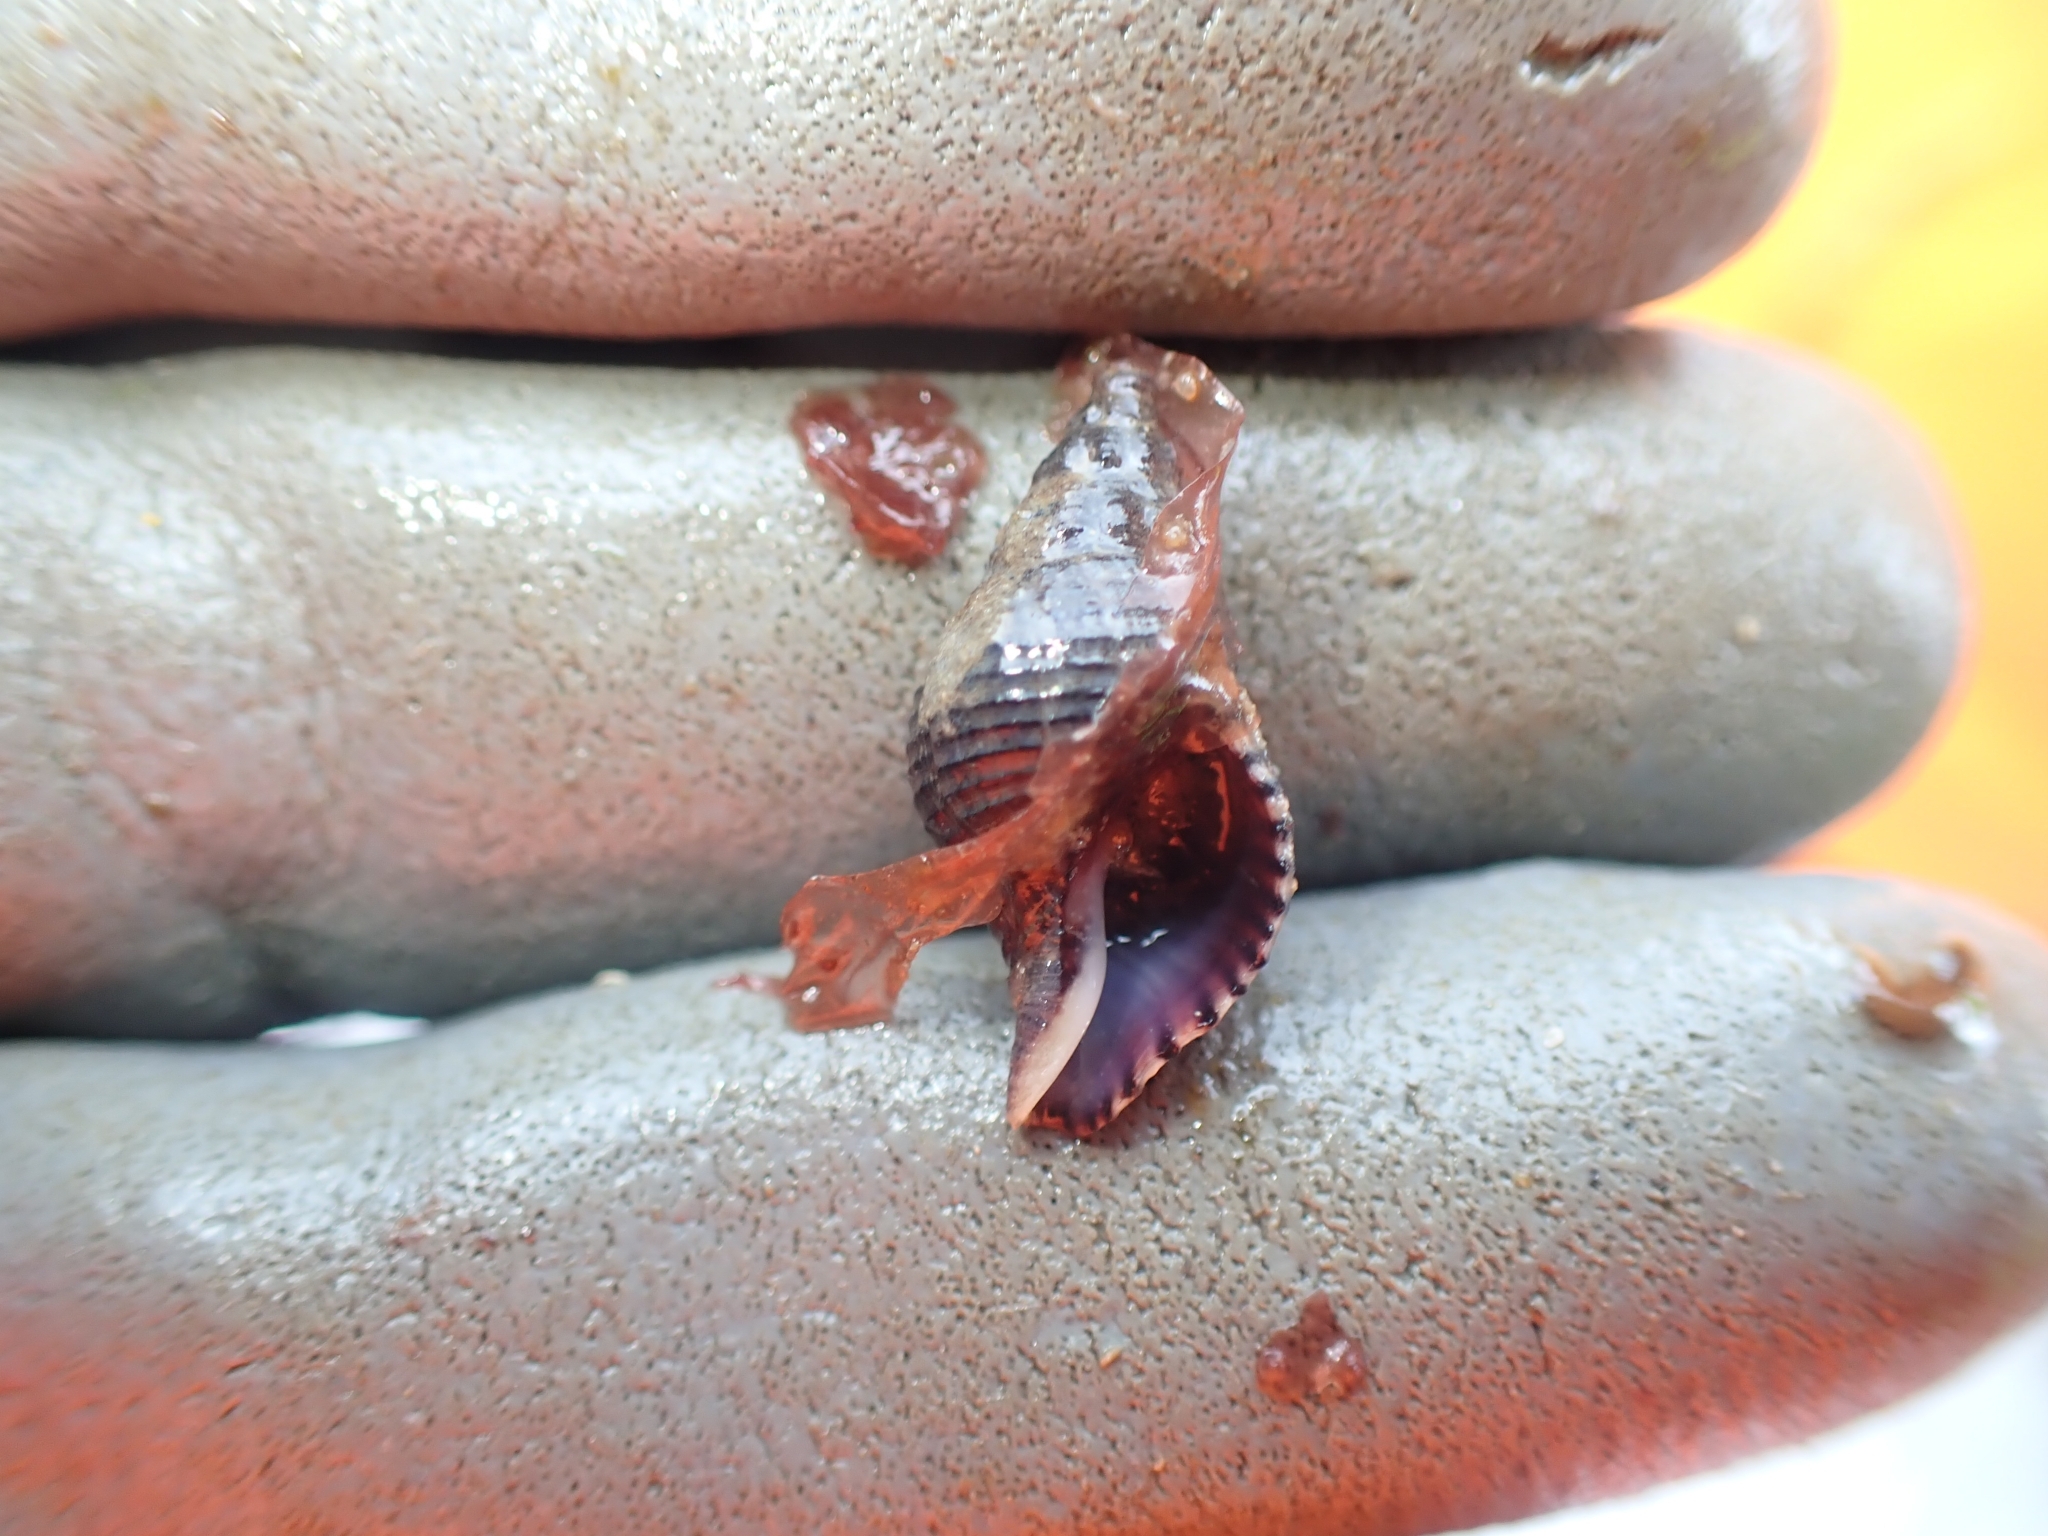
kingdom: Animalia
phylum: Mollusca
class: Gastropoda
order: Neogastropoda
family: Tudiclidae
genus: Buccinulum
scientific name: Buccinulum linea
